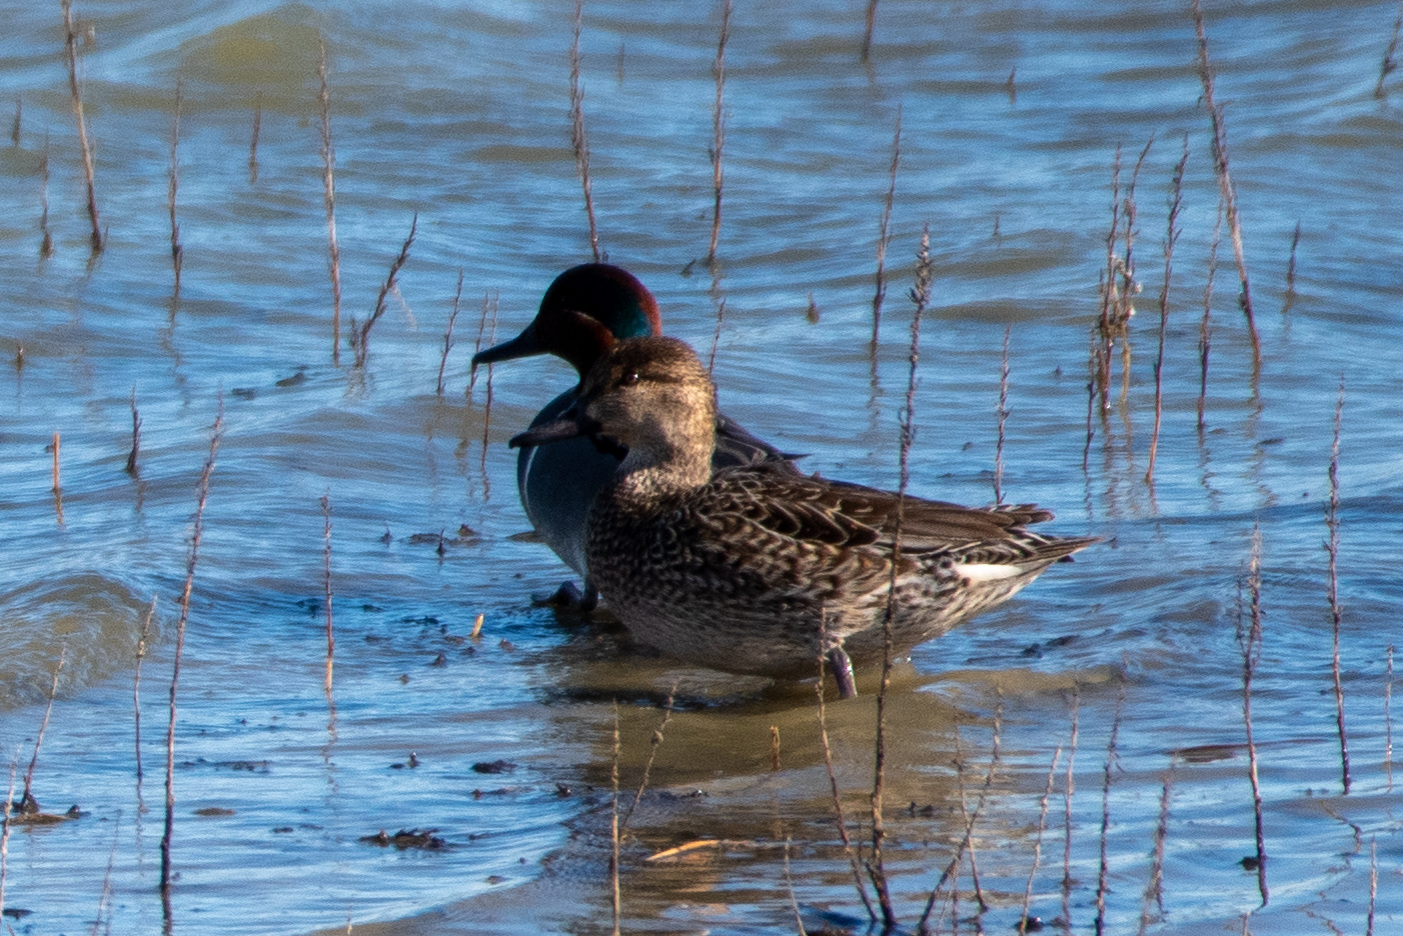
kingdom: Animalia
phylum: Chordata
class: Aves
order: Anseriformes
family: Anatidae
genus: Anas
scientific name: Anas crecca
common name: Eurasian teal
